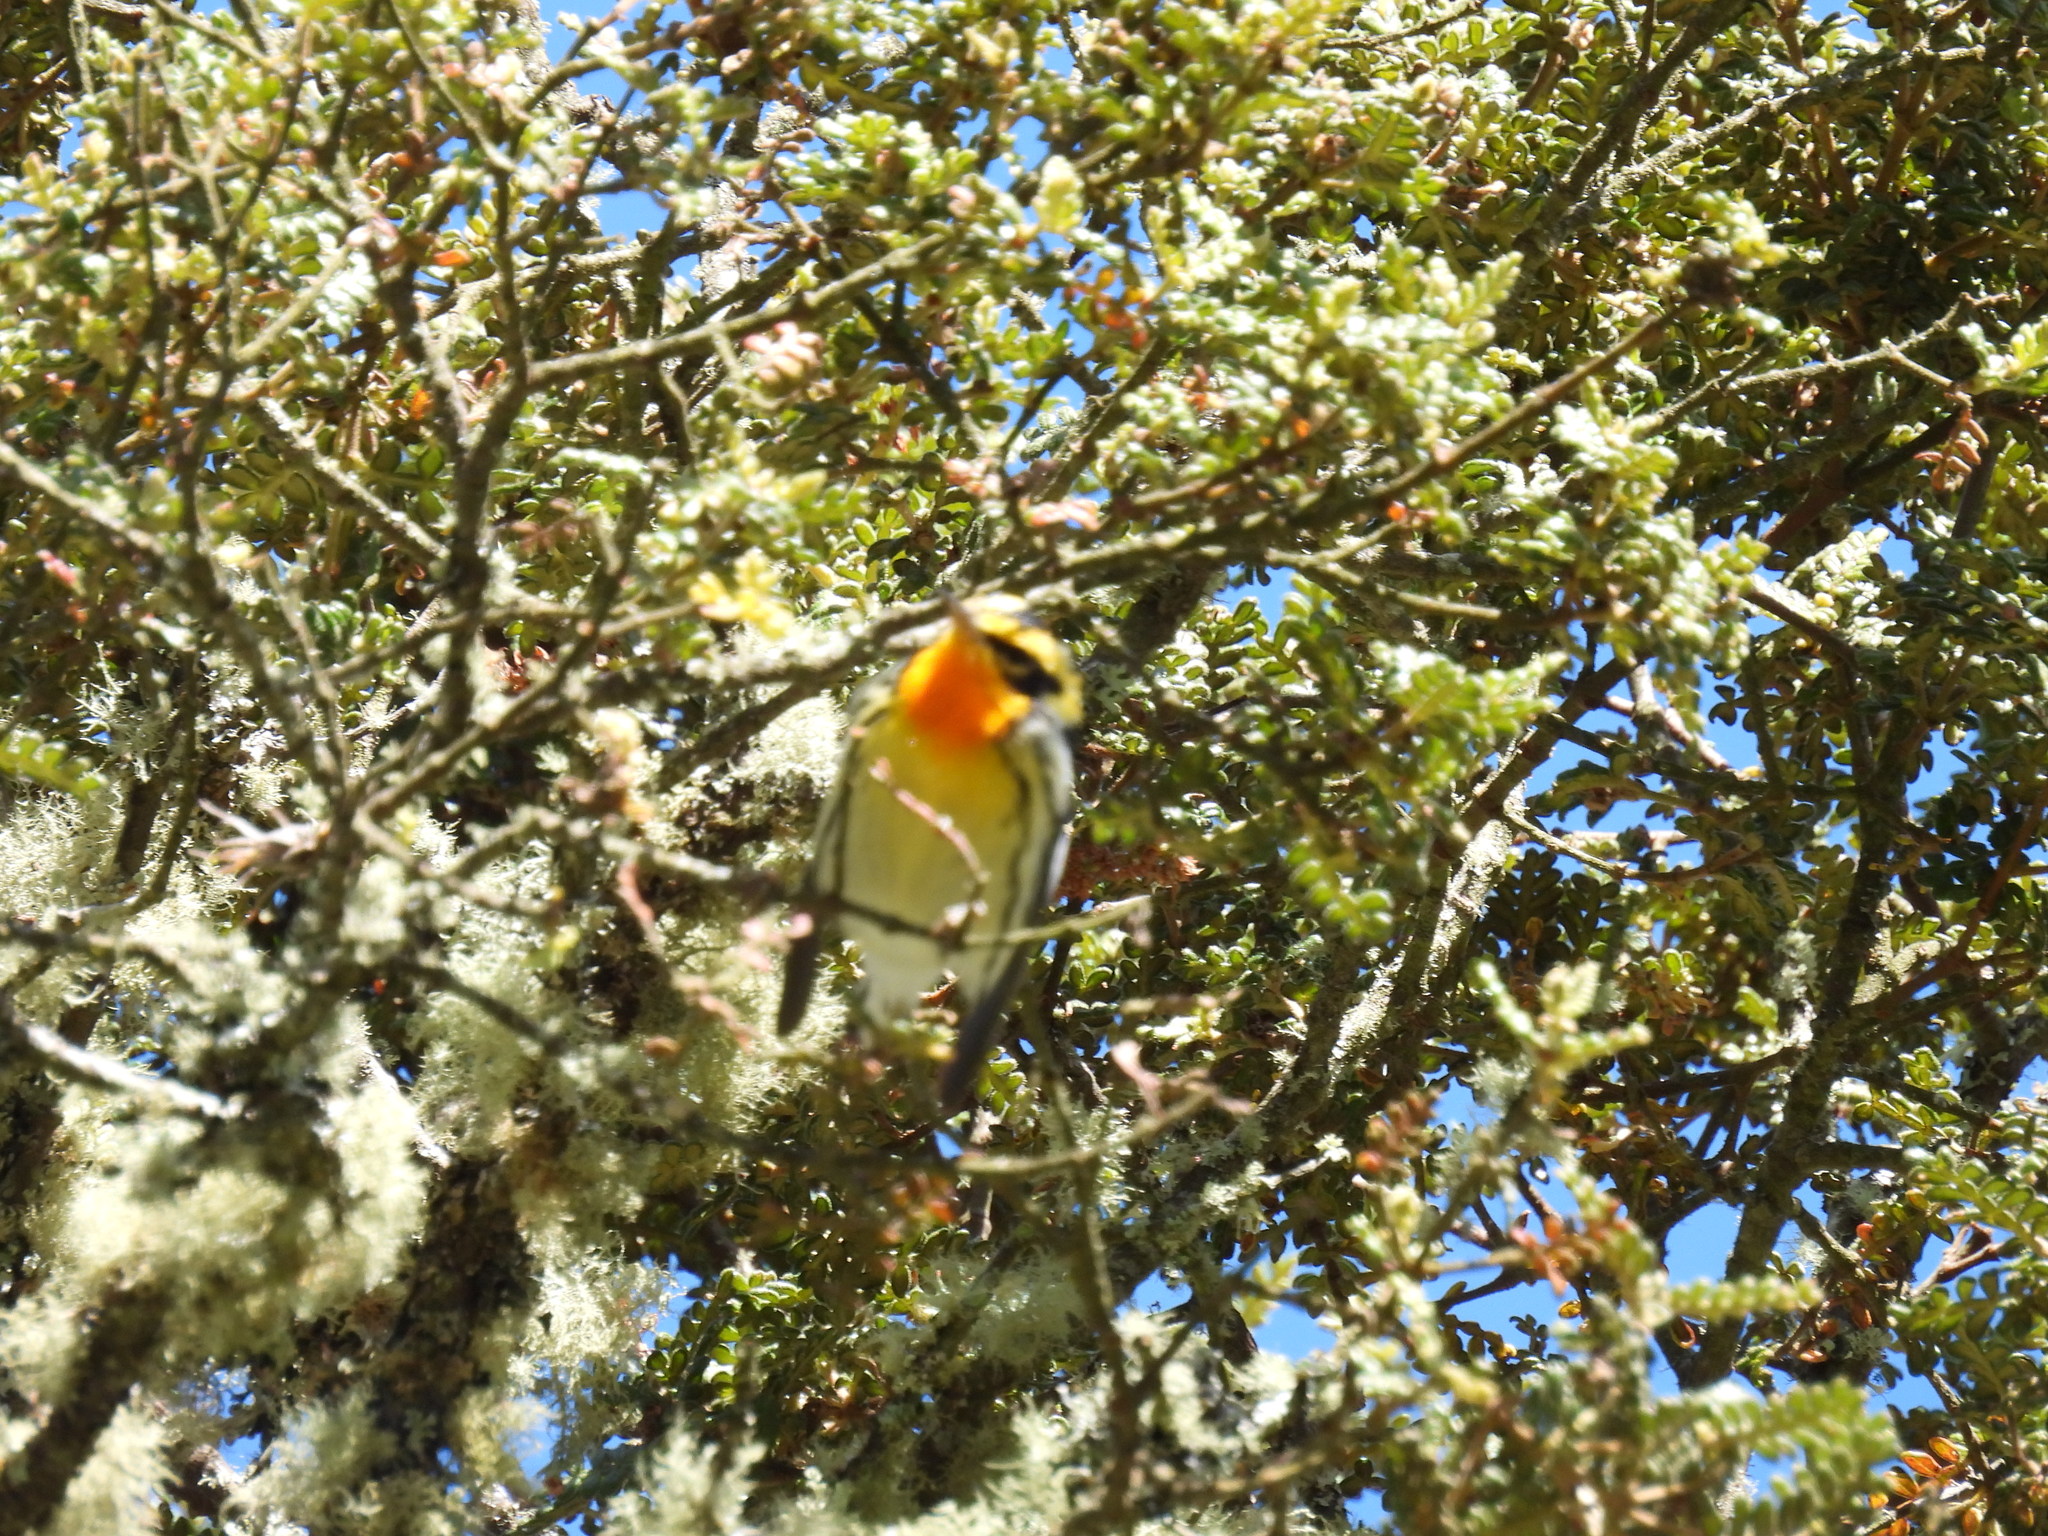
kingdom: Animalia
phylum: Chordata
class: Aves
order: Passeriformes
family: Parulidae
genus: Setophaga
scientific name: Setophaga fusca
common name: Blackburnian warbler
